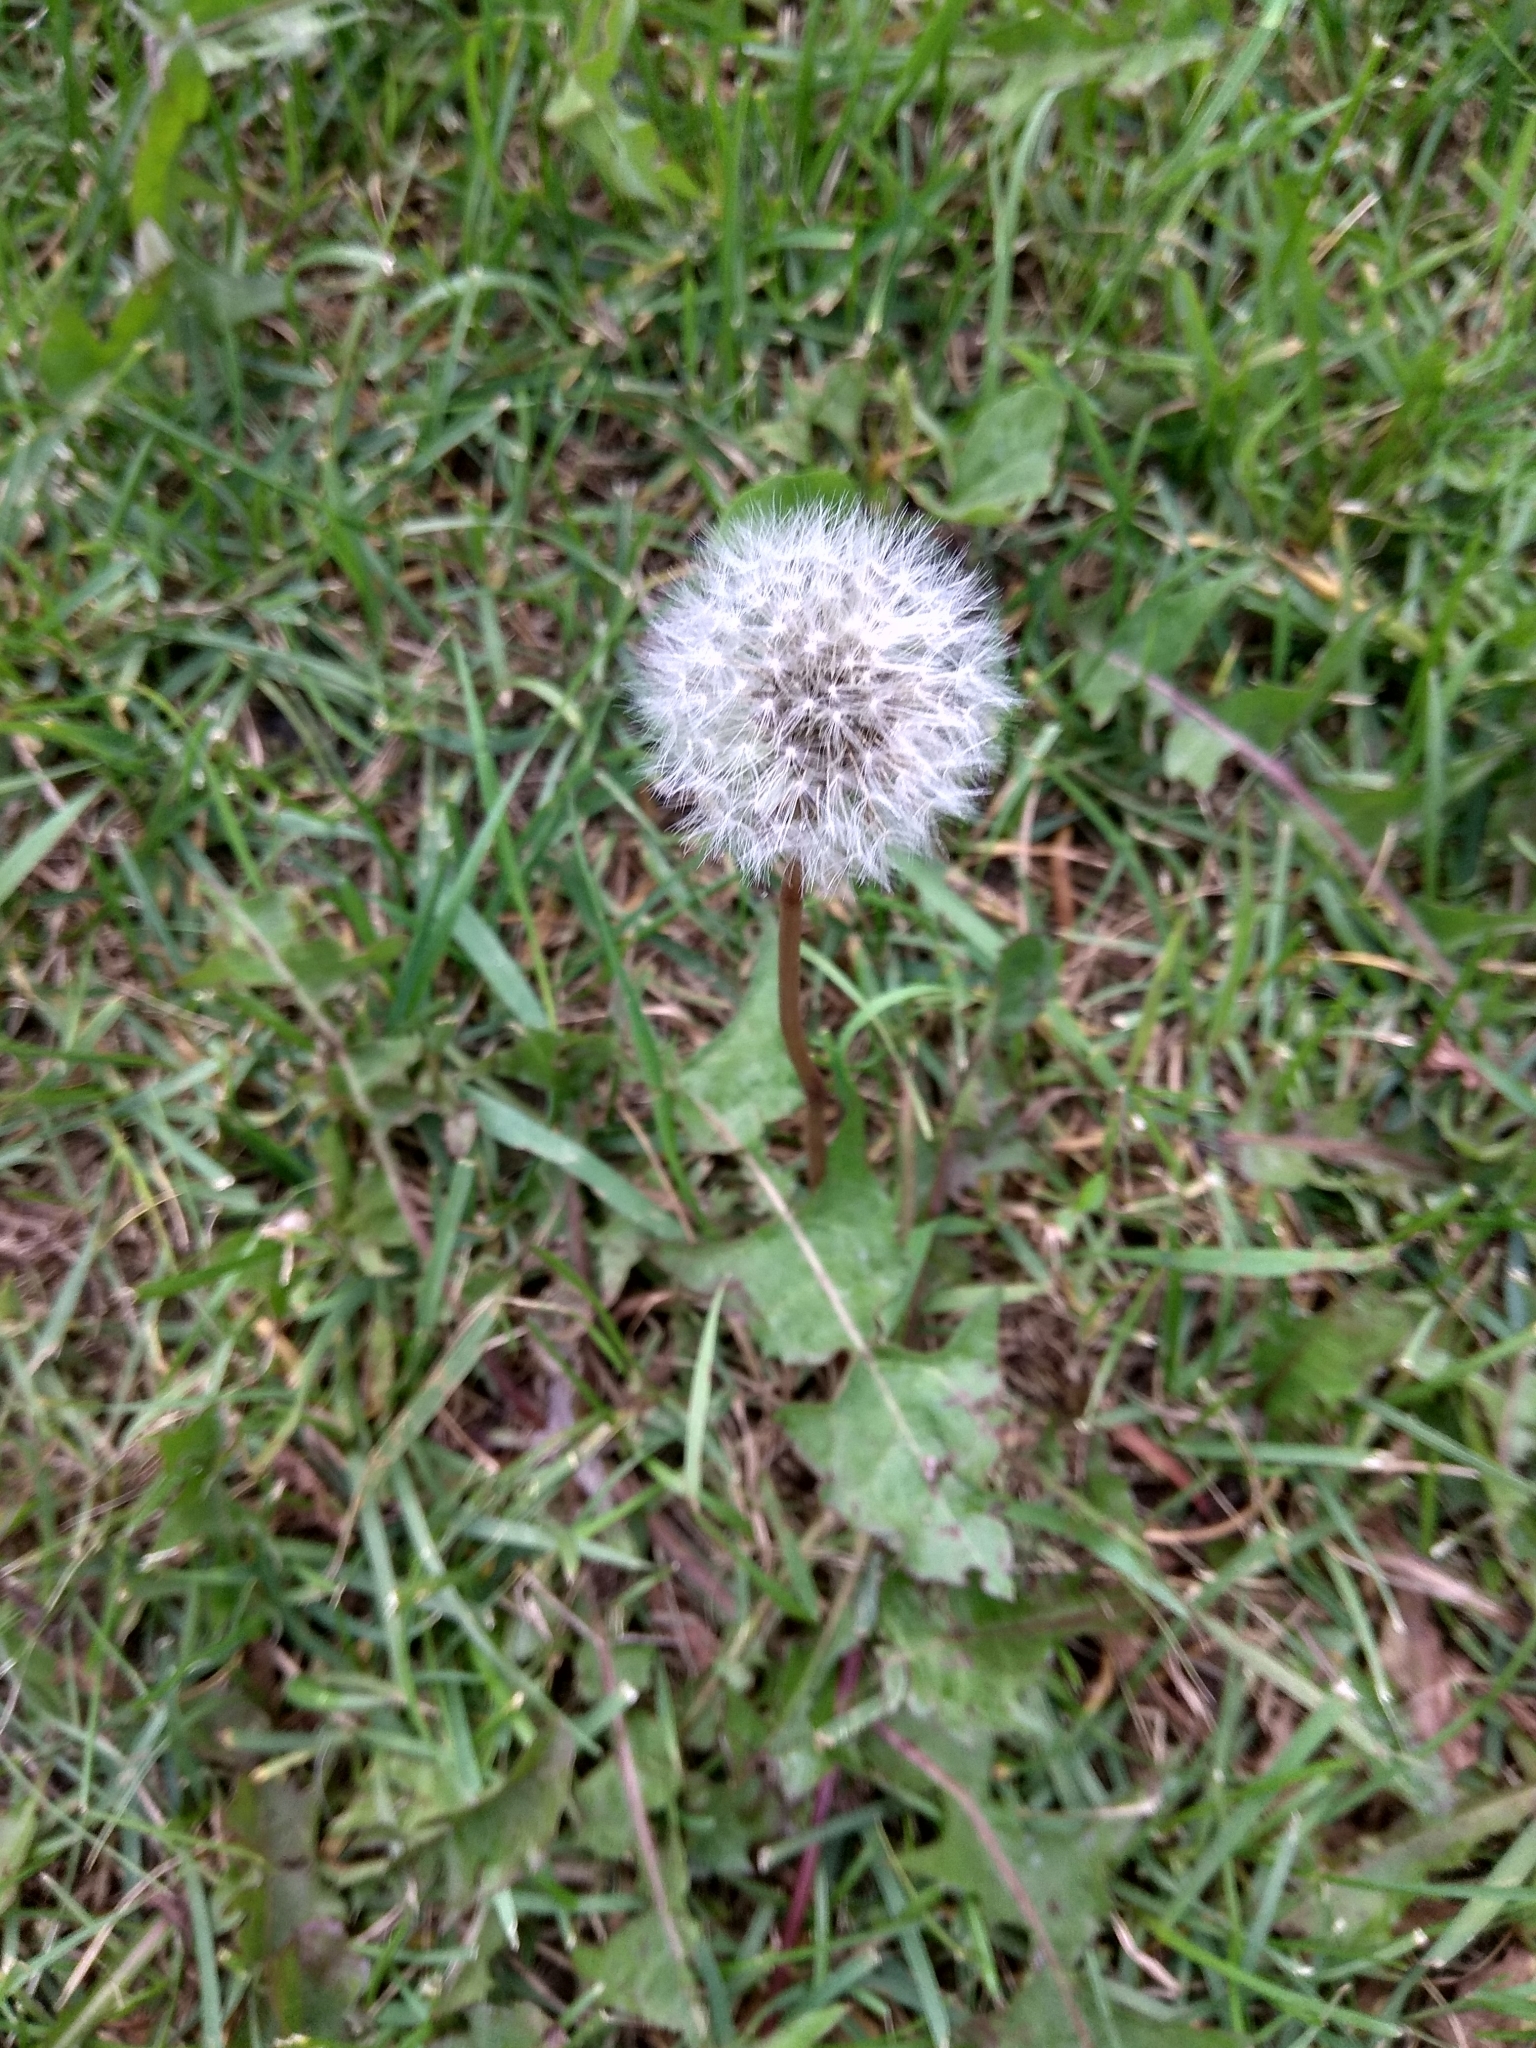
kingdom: Plantae
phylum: Tracheophyta
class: Magnoliopsida
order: Asterales
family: Asteraceae
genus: Taraxacum
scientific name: Taraxacum officinale
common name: Common dandelion
